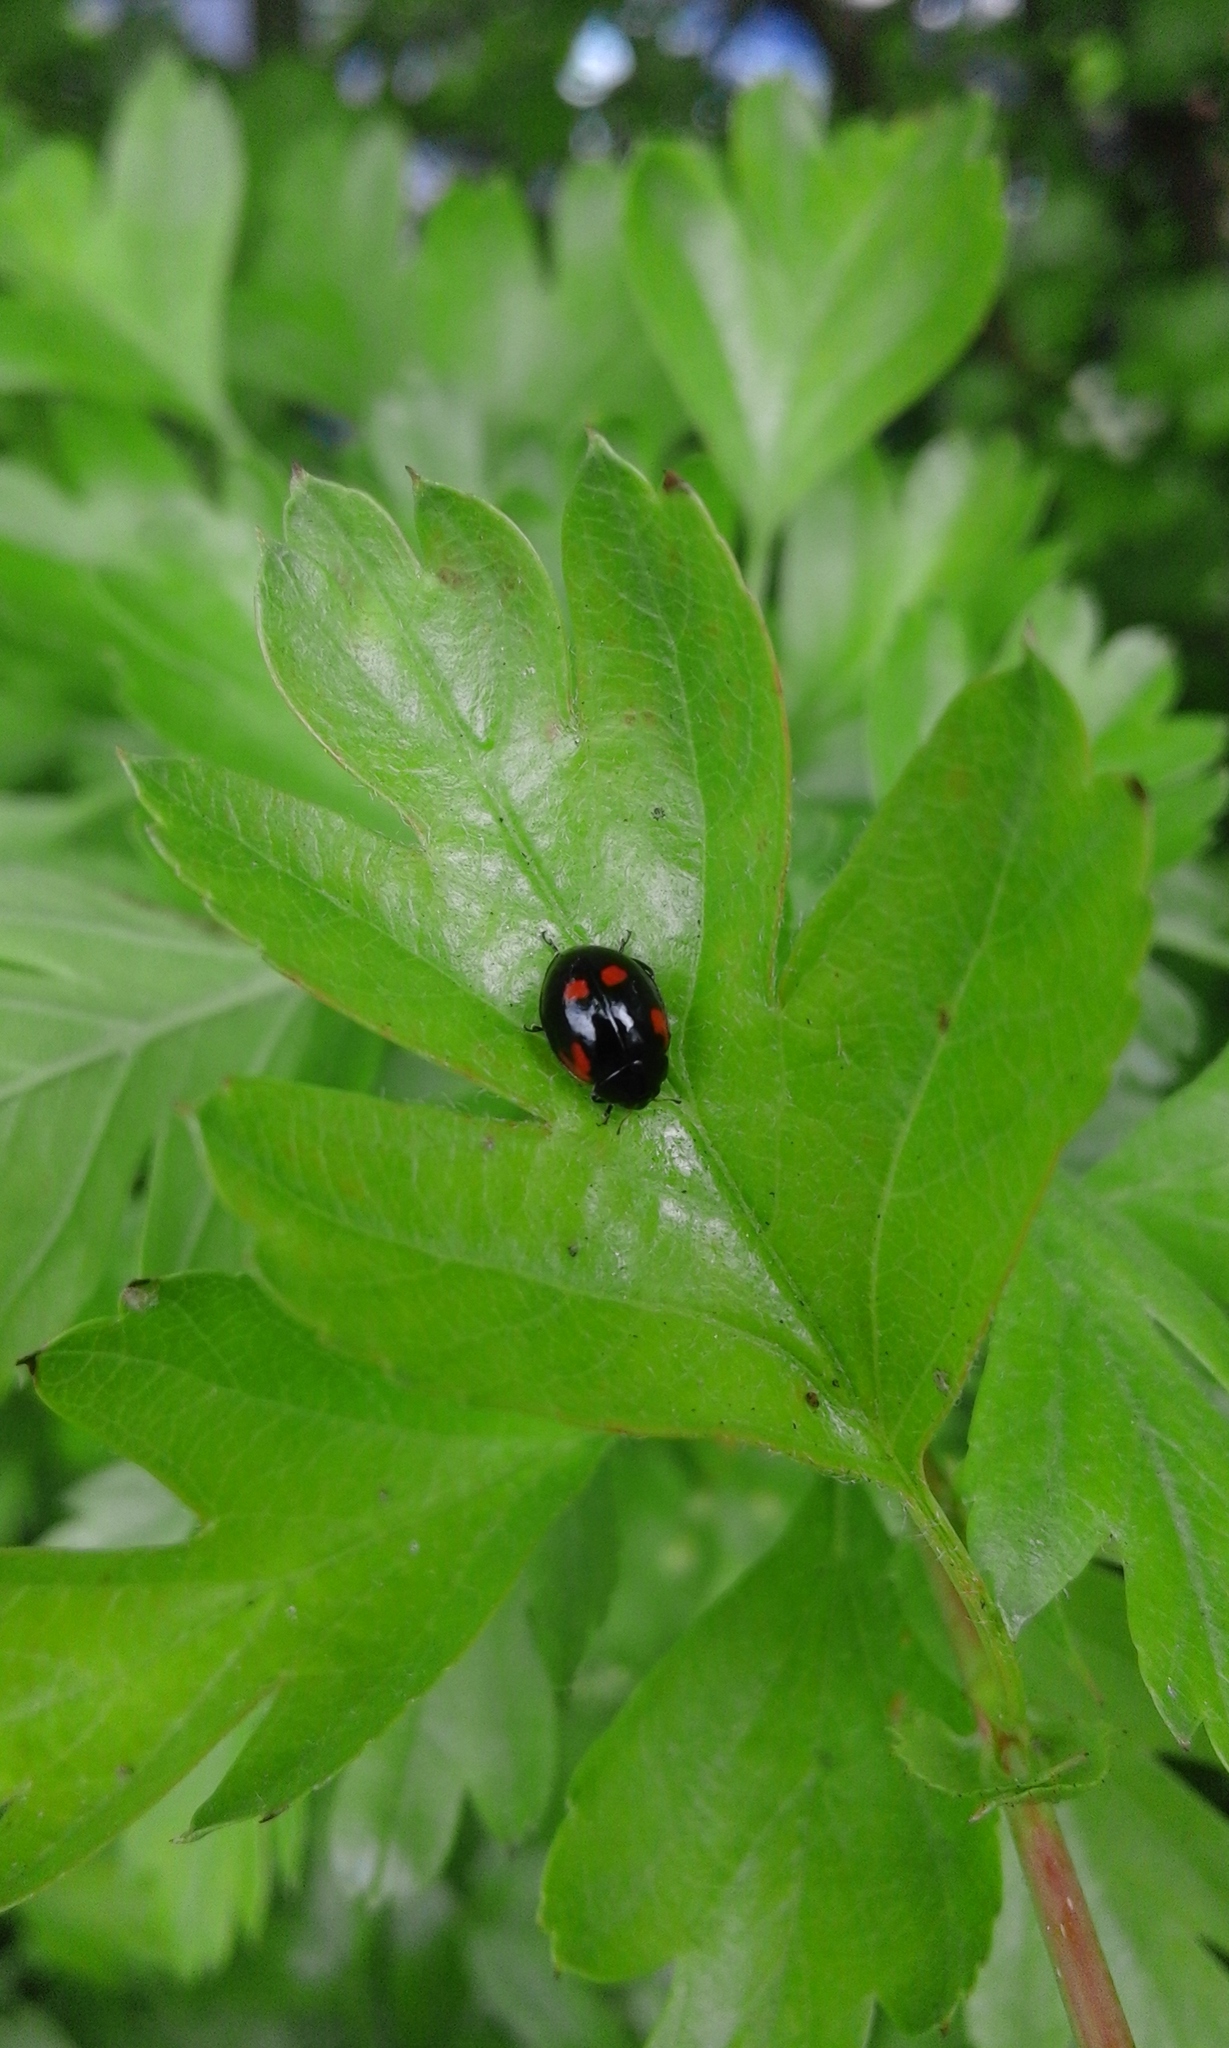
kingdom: Animalia
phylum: Arthropoda
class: Insecta
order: Coleoptera
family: Coccinellidae
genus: Adalia
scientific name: Adalia bipunctata
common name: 2-spot ladybird
